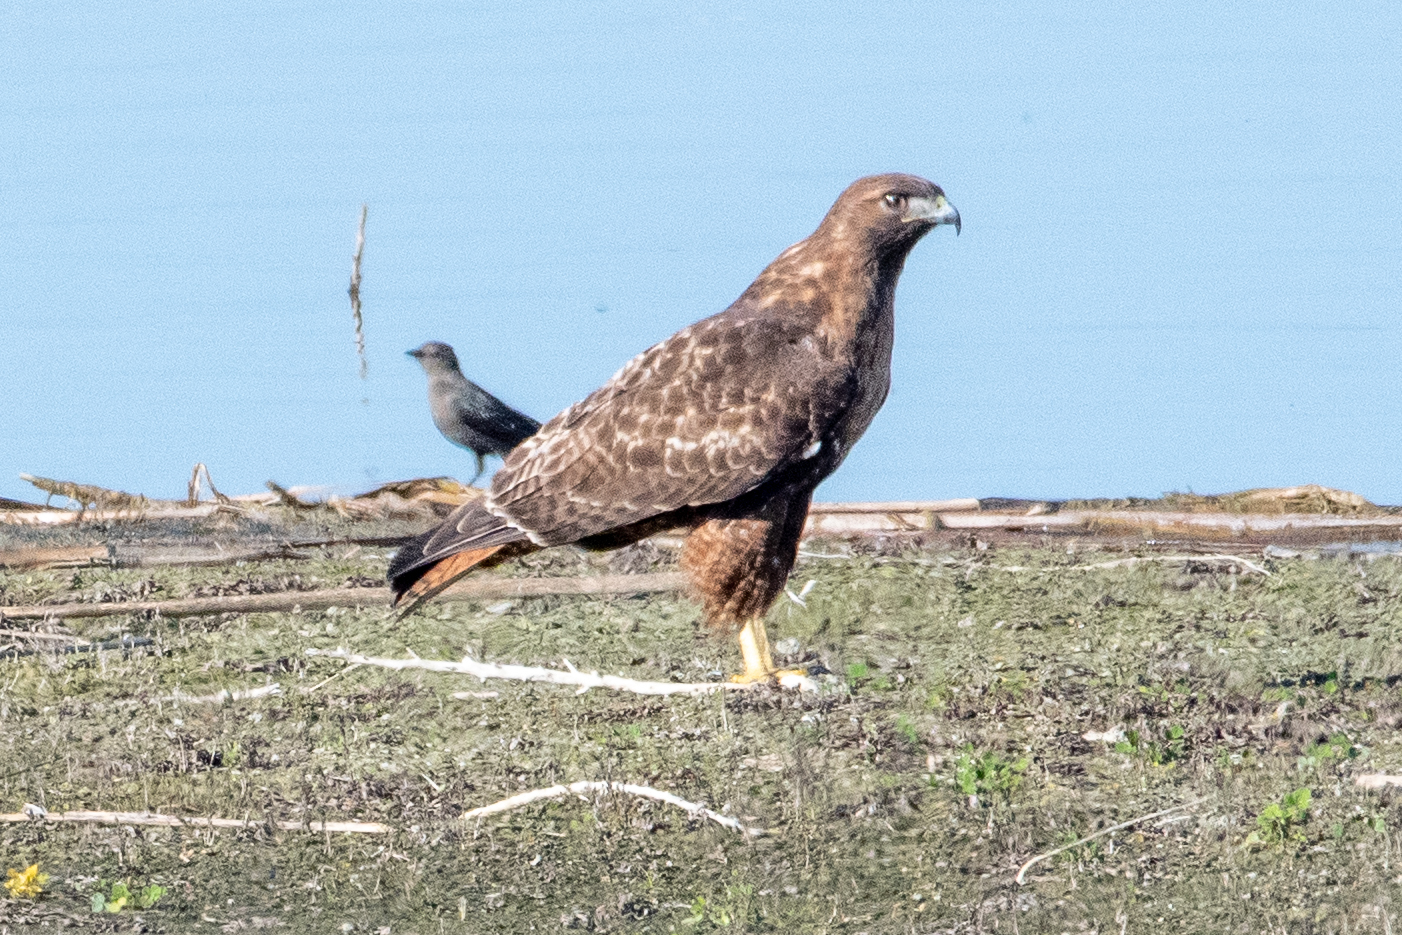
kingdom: Animalia
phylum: Chordata
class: Aves
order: Accipitriformes
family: Accipitridae
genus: Buteo
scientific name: Buteo jamaicensis
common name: Red-tailed hawk
